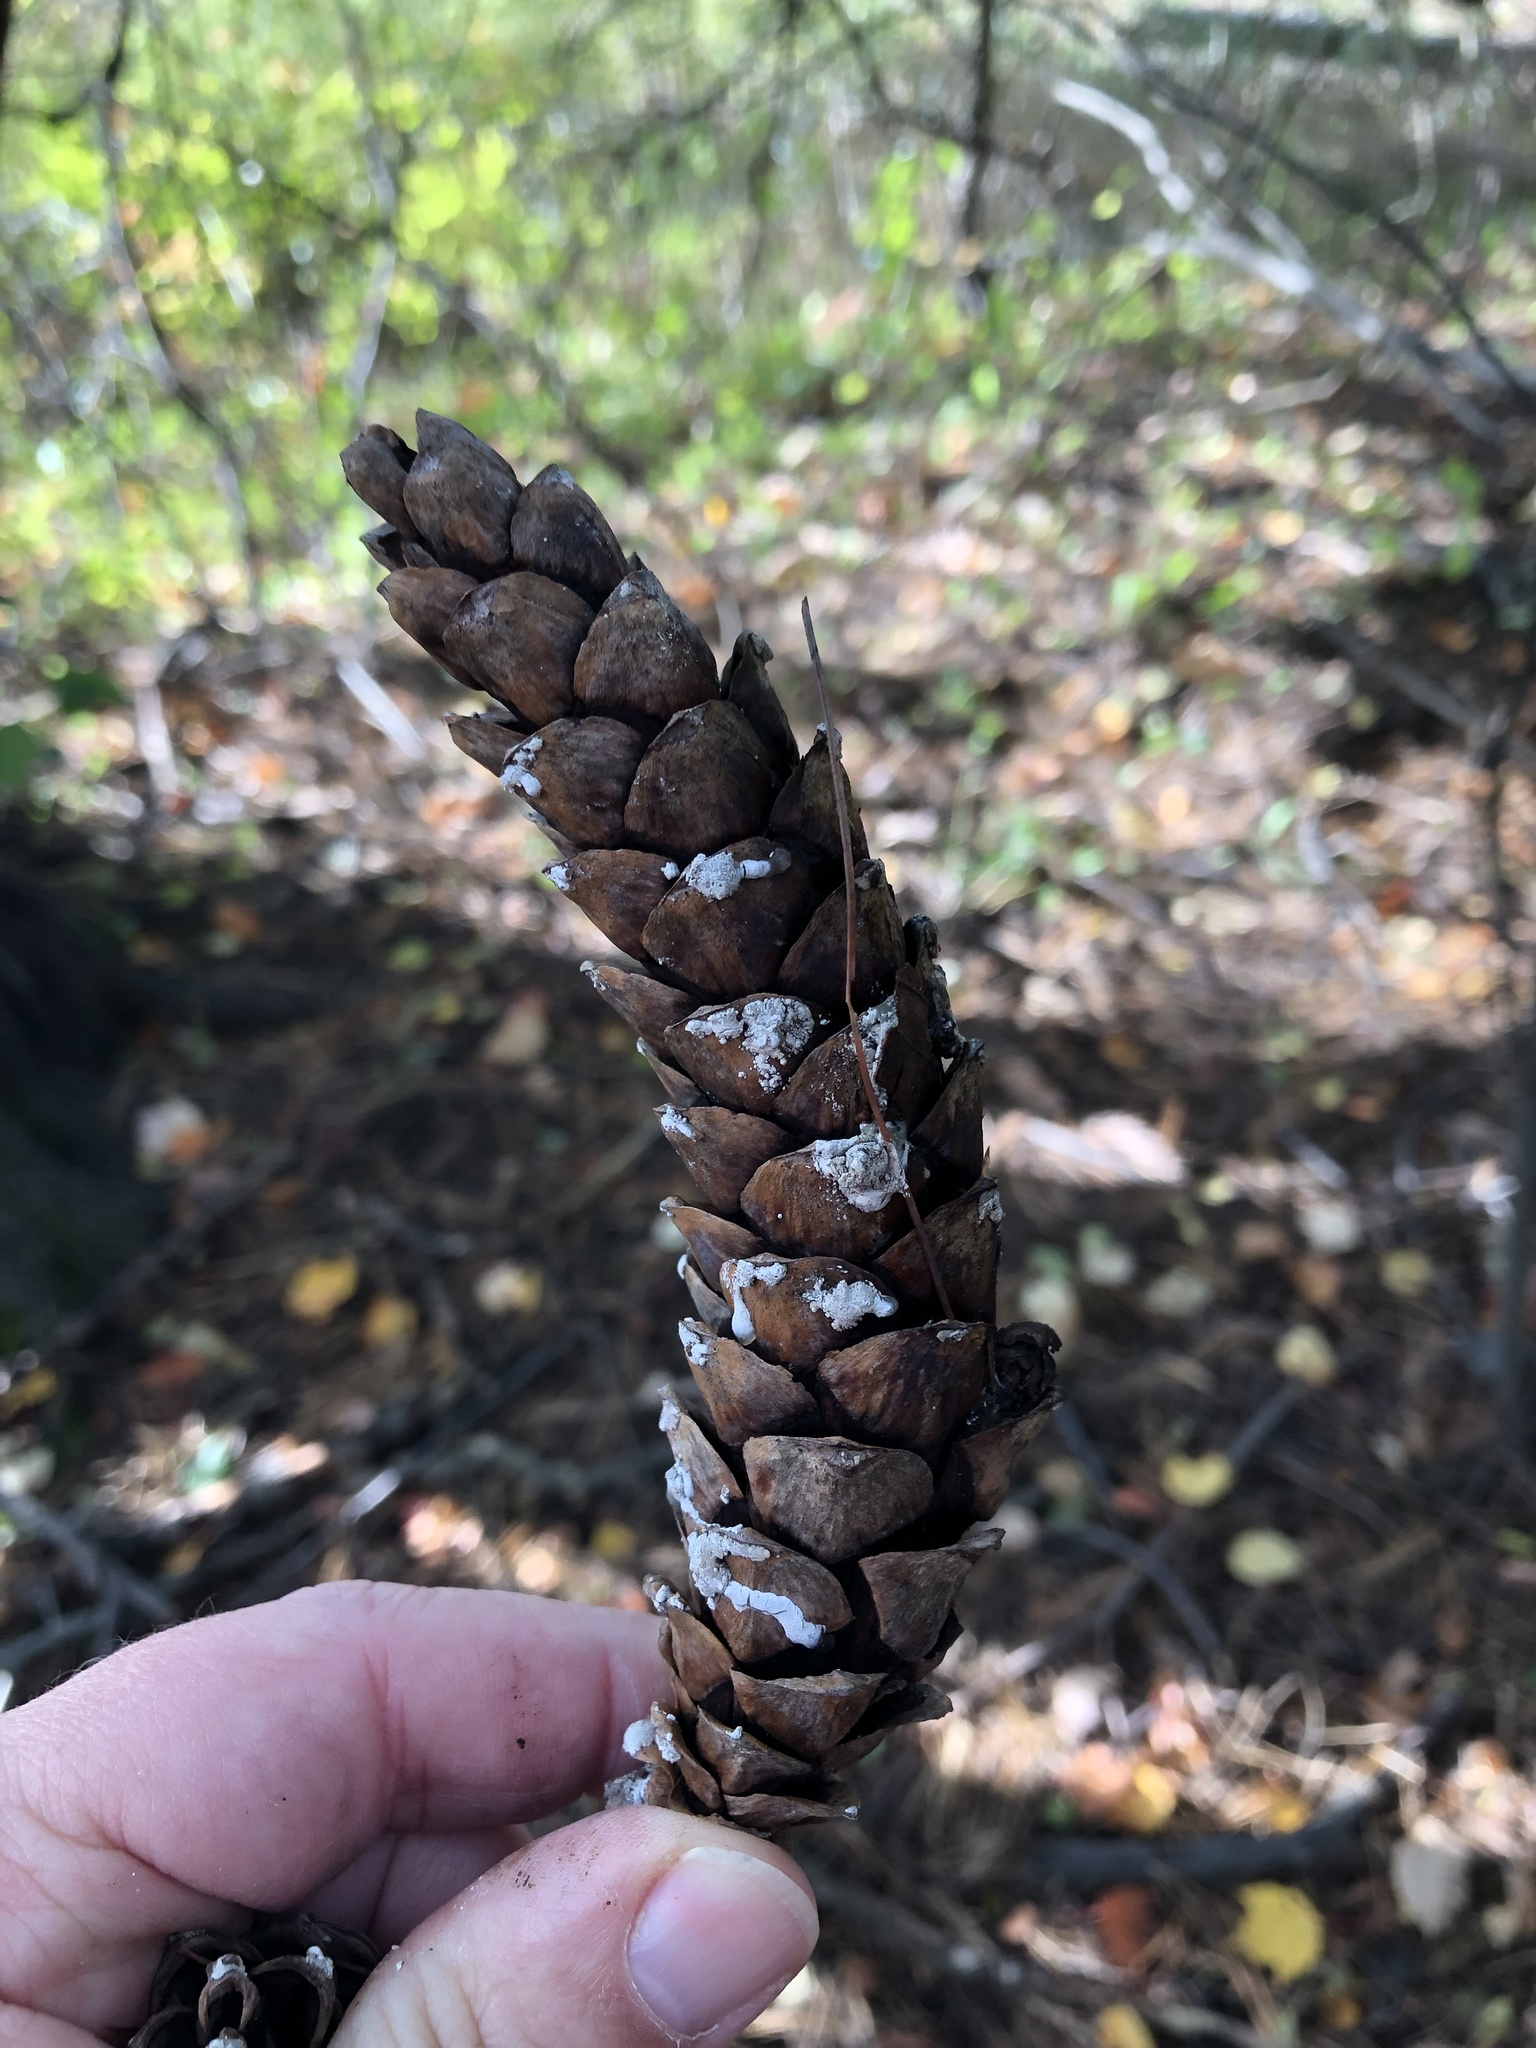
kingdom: Plantae
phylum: Tracheophyta
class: Pinopsida
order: Pinales
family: Pinaceae
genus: Pinus
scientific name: Pinus strobus
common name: Weymouth pine
